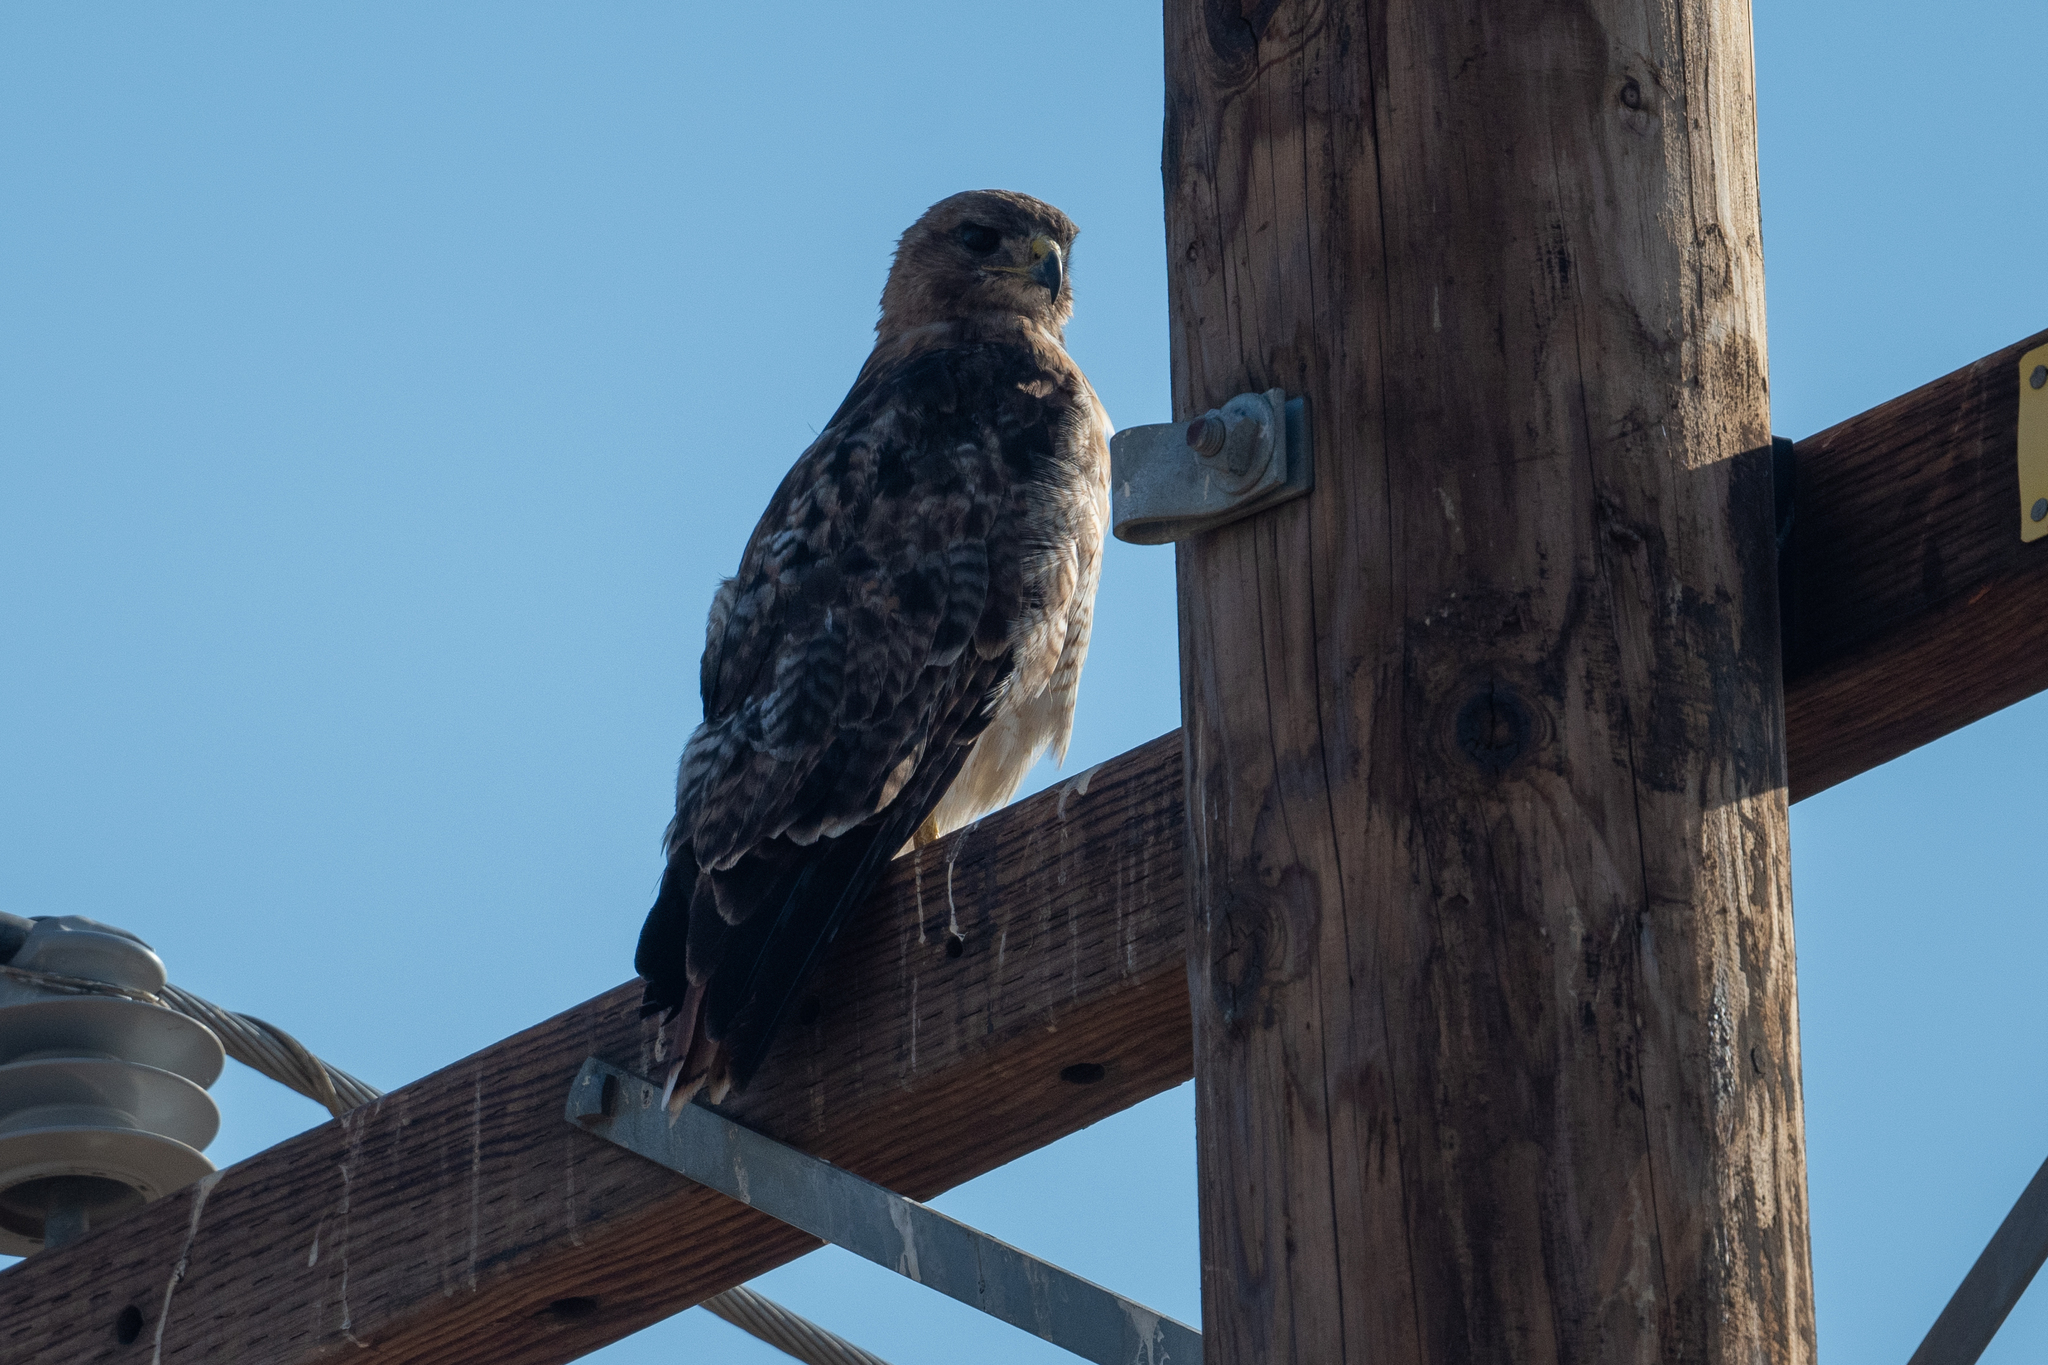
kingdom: Animalia
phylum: Chordata
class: Aves
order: Accipitriformes
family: Accipitridae
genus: Buteo
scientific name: Buteo jamaicensis
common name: Red-tailed hawk
